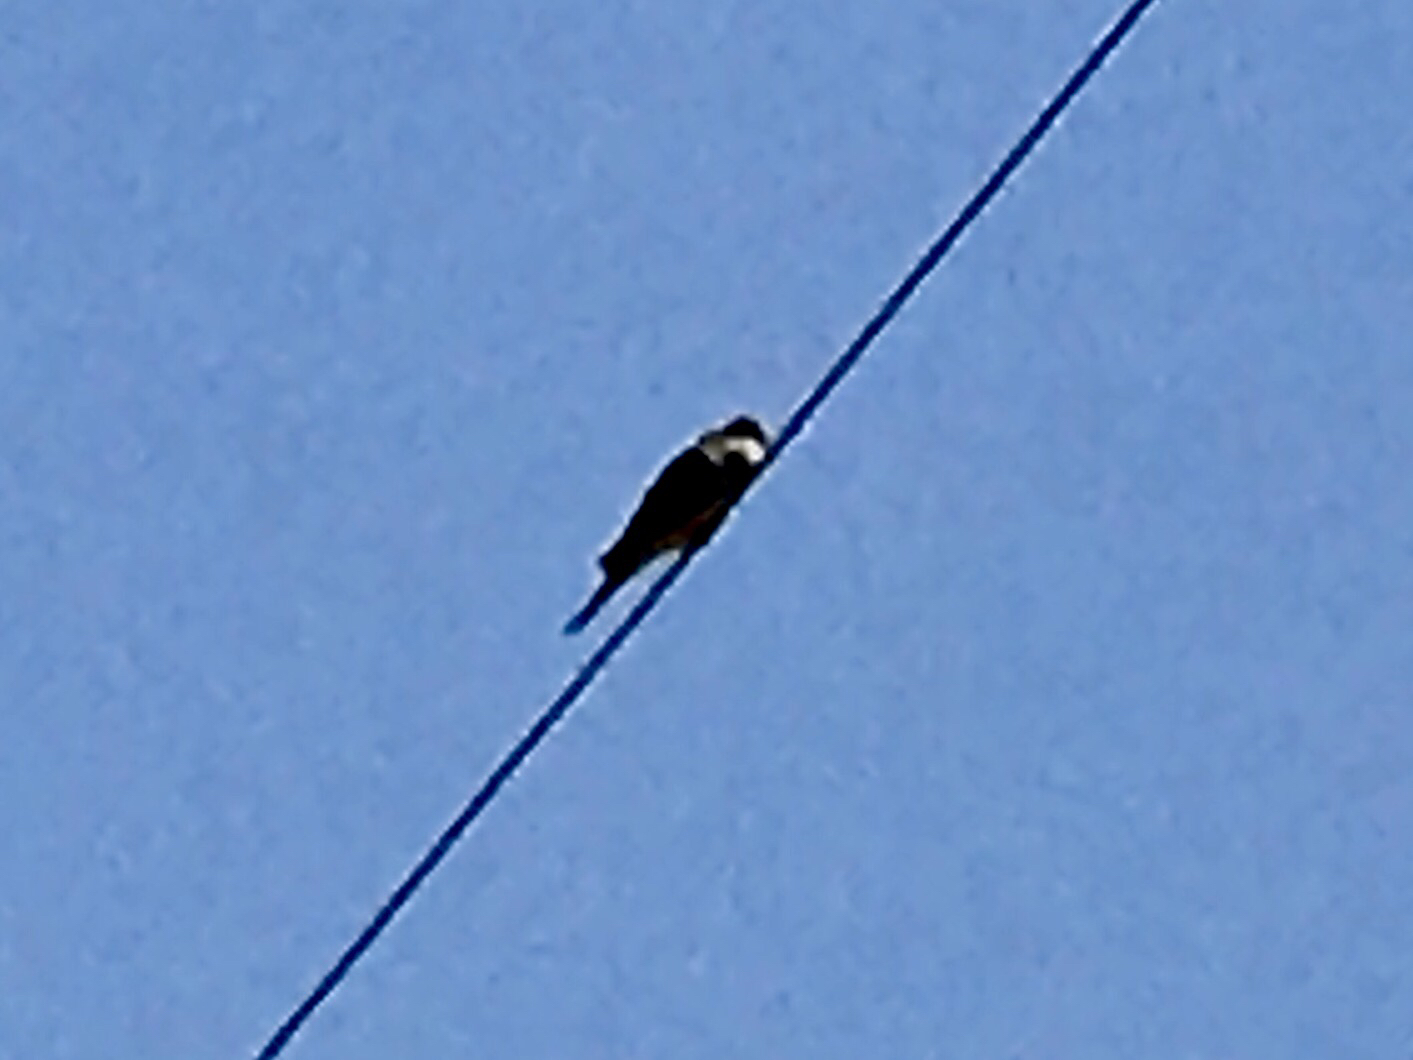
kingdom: Animalia
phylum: Chordata
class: Aves
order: Columbiformes
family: Columbidae
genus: Zenaida
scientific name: Zenaida macroura
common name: Mourning dove
